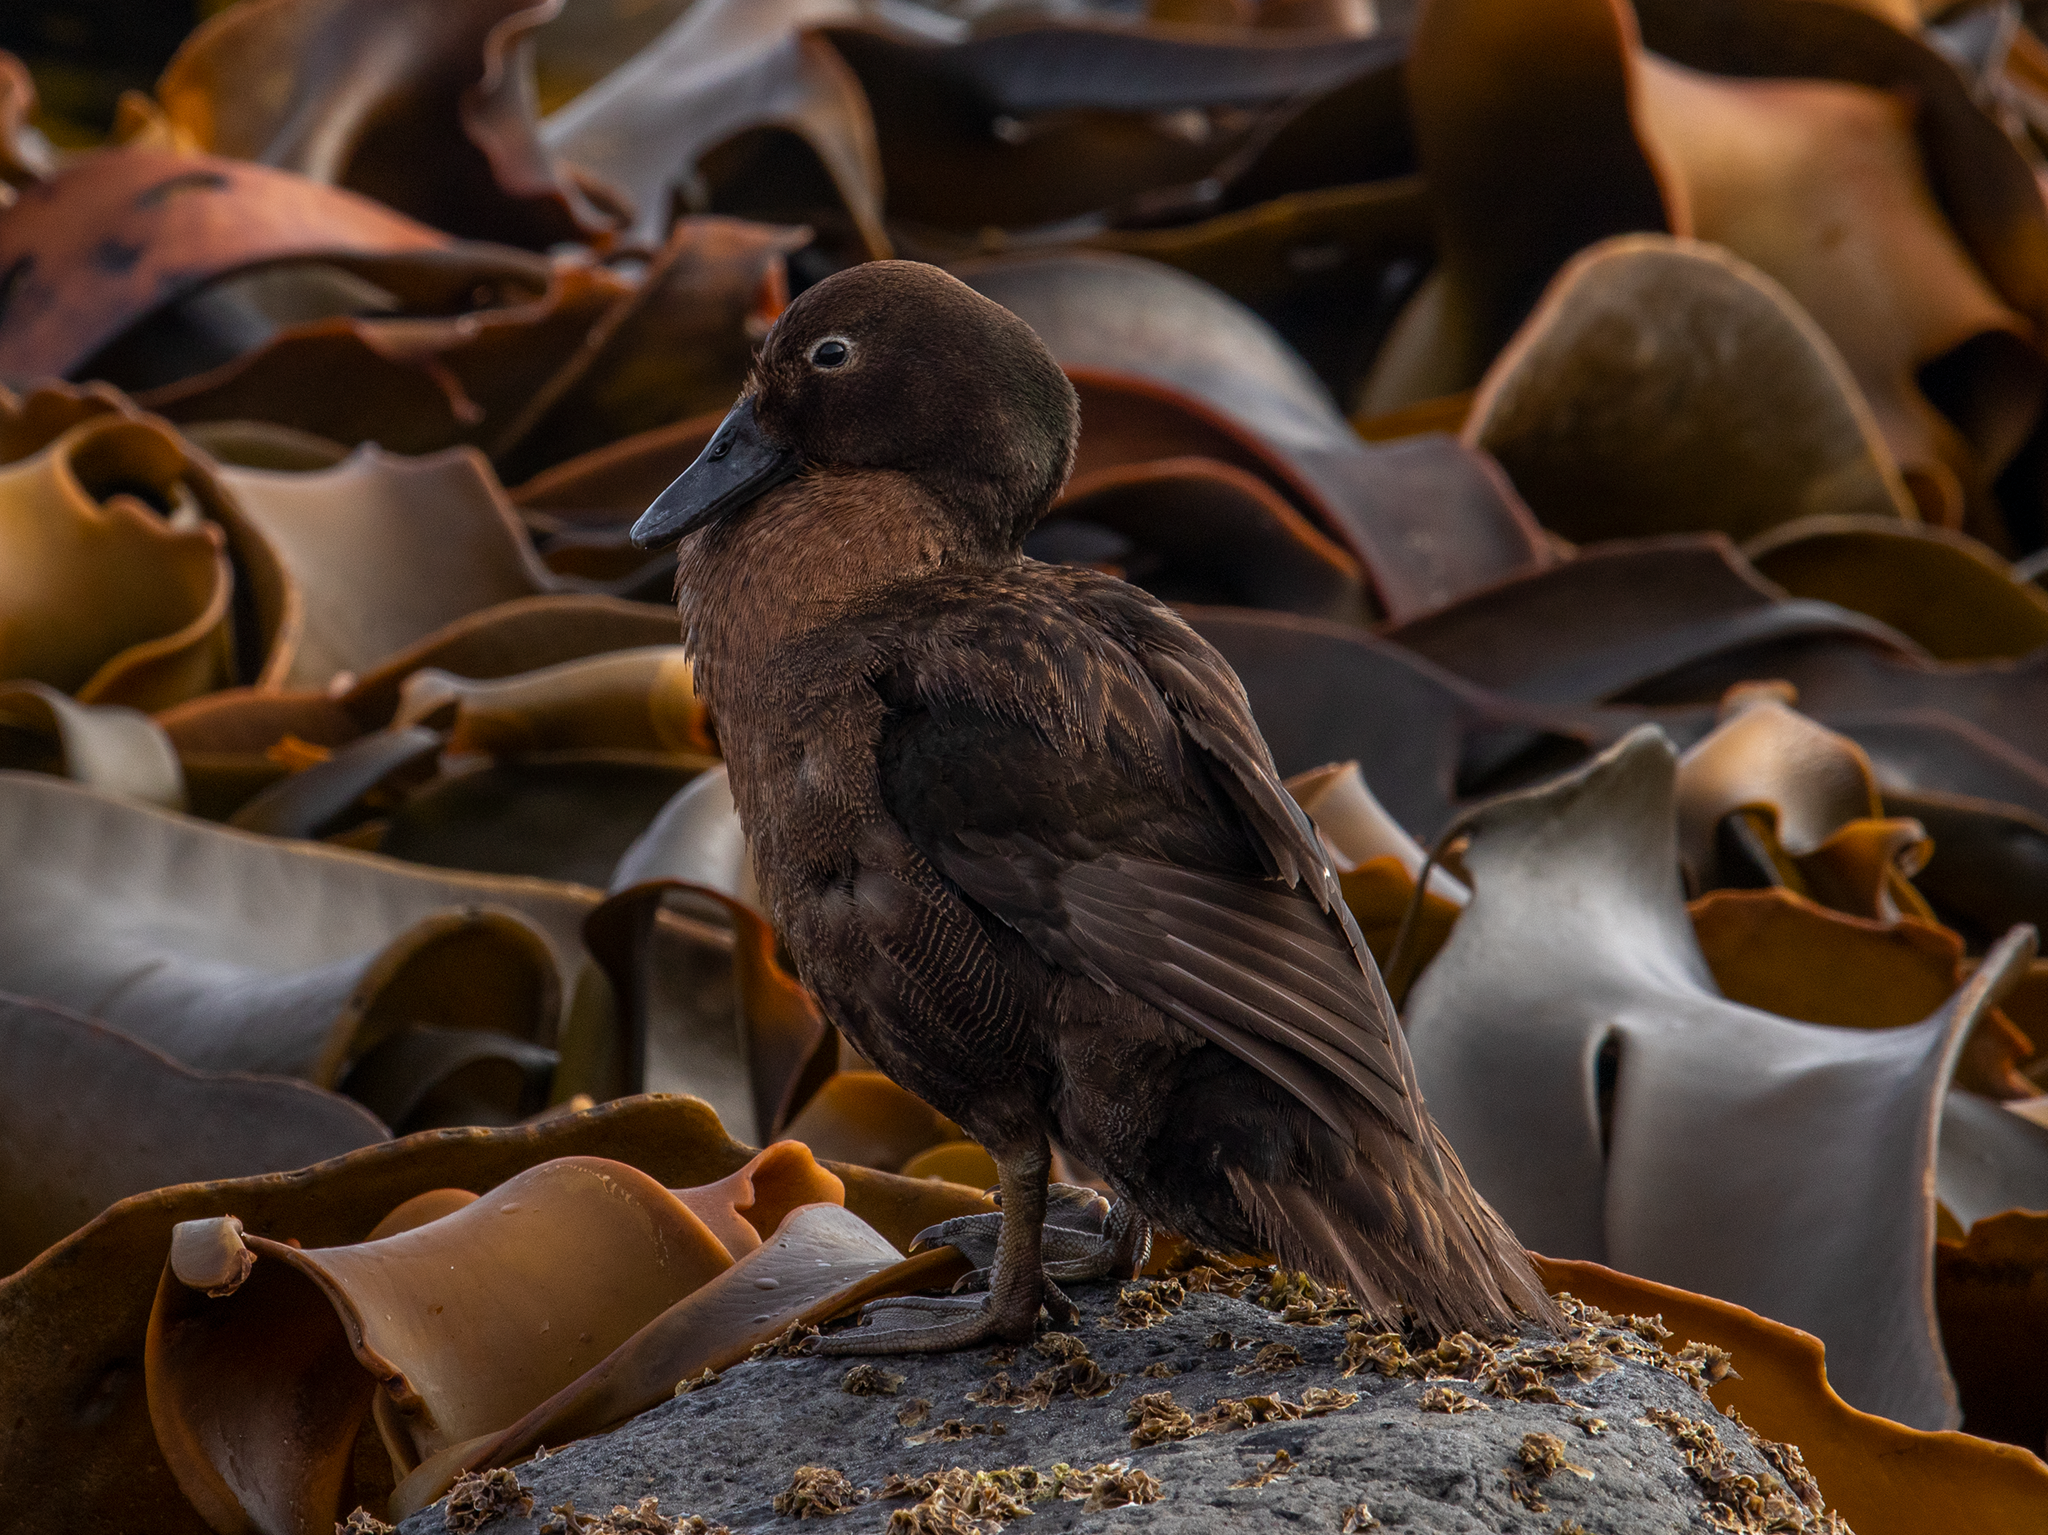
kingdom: Animalia
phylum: Chordata
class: Aves
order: Anseriformes
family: Anatidae
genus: Anas
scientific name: Anas aucklandica
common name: Auckland teal
